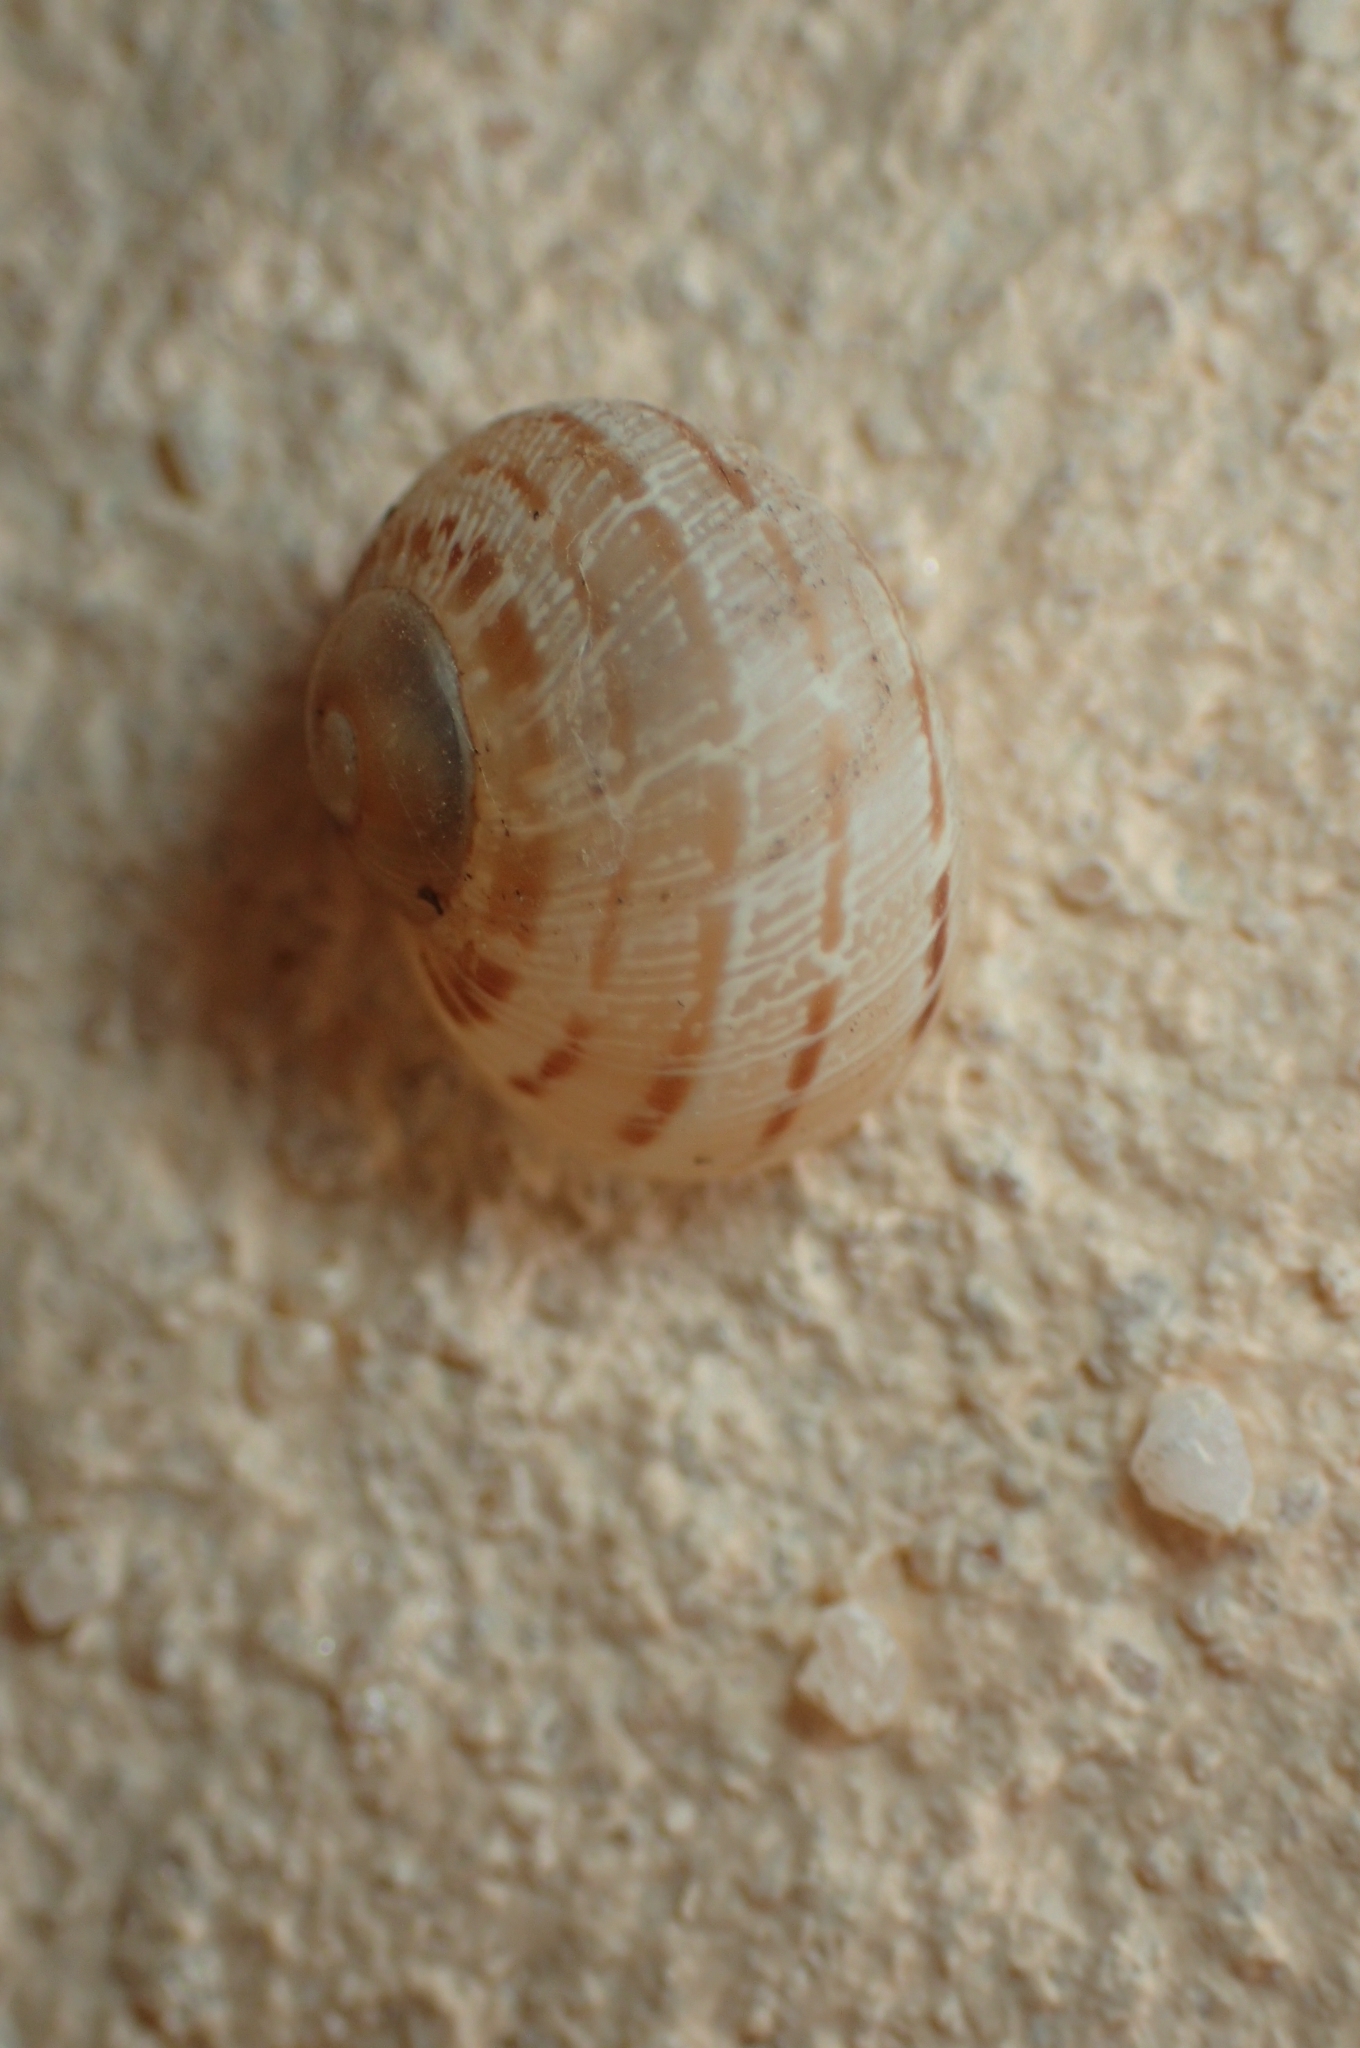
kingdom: Animalia
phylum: Mollusca
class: Gastropoda
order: Stylommatophora
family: Helicidae
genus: Cornu
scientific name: Cornu aspersum
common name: Brown garden snail
